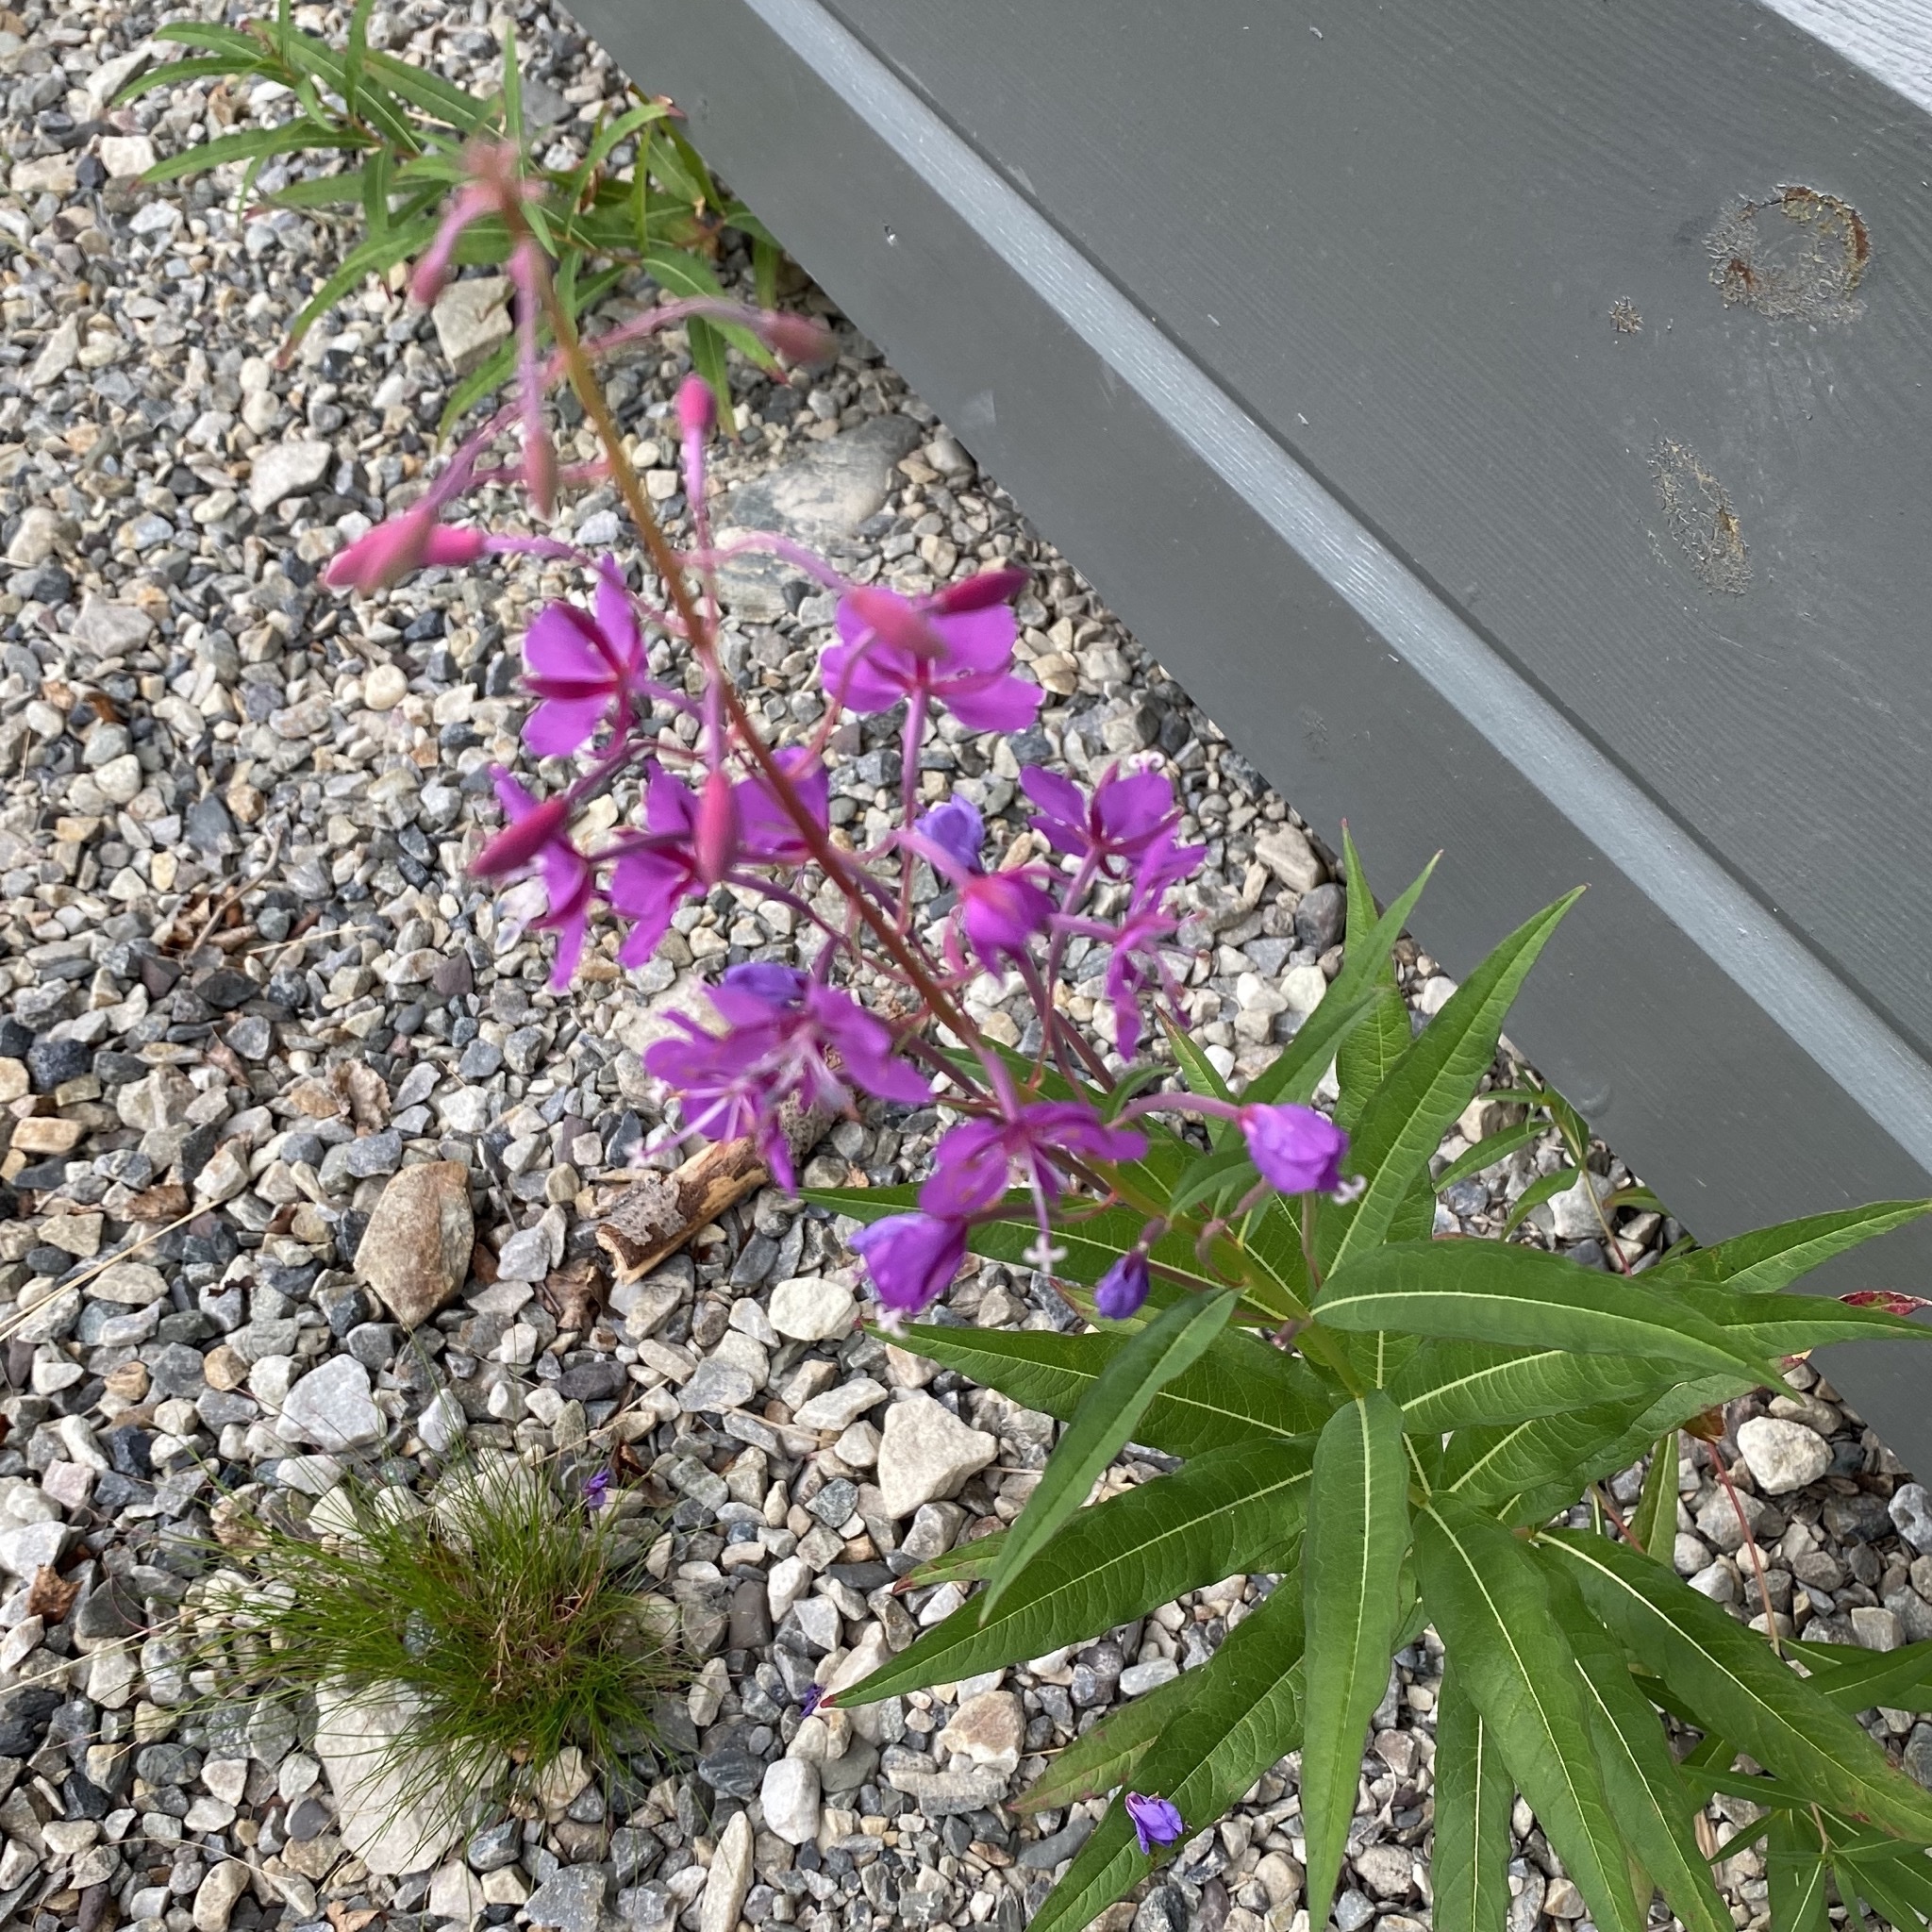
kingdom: Plantae
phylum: Tracheophyta
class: Magnoliopsida
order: Myrtales
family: Onagraceae
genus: Chamaenerion
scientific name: Chamaenerion angustifolium
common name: Fireweed
